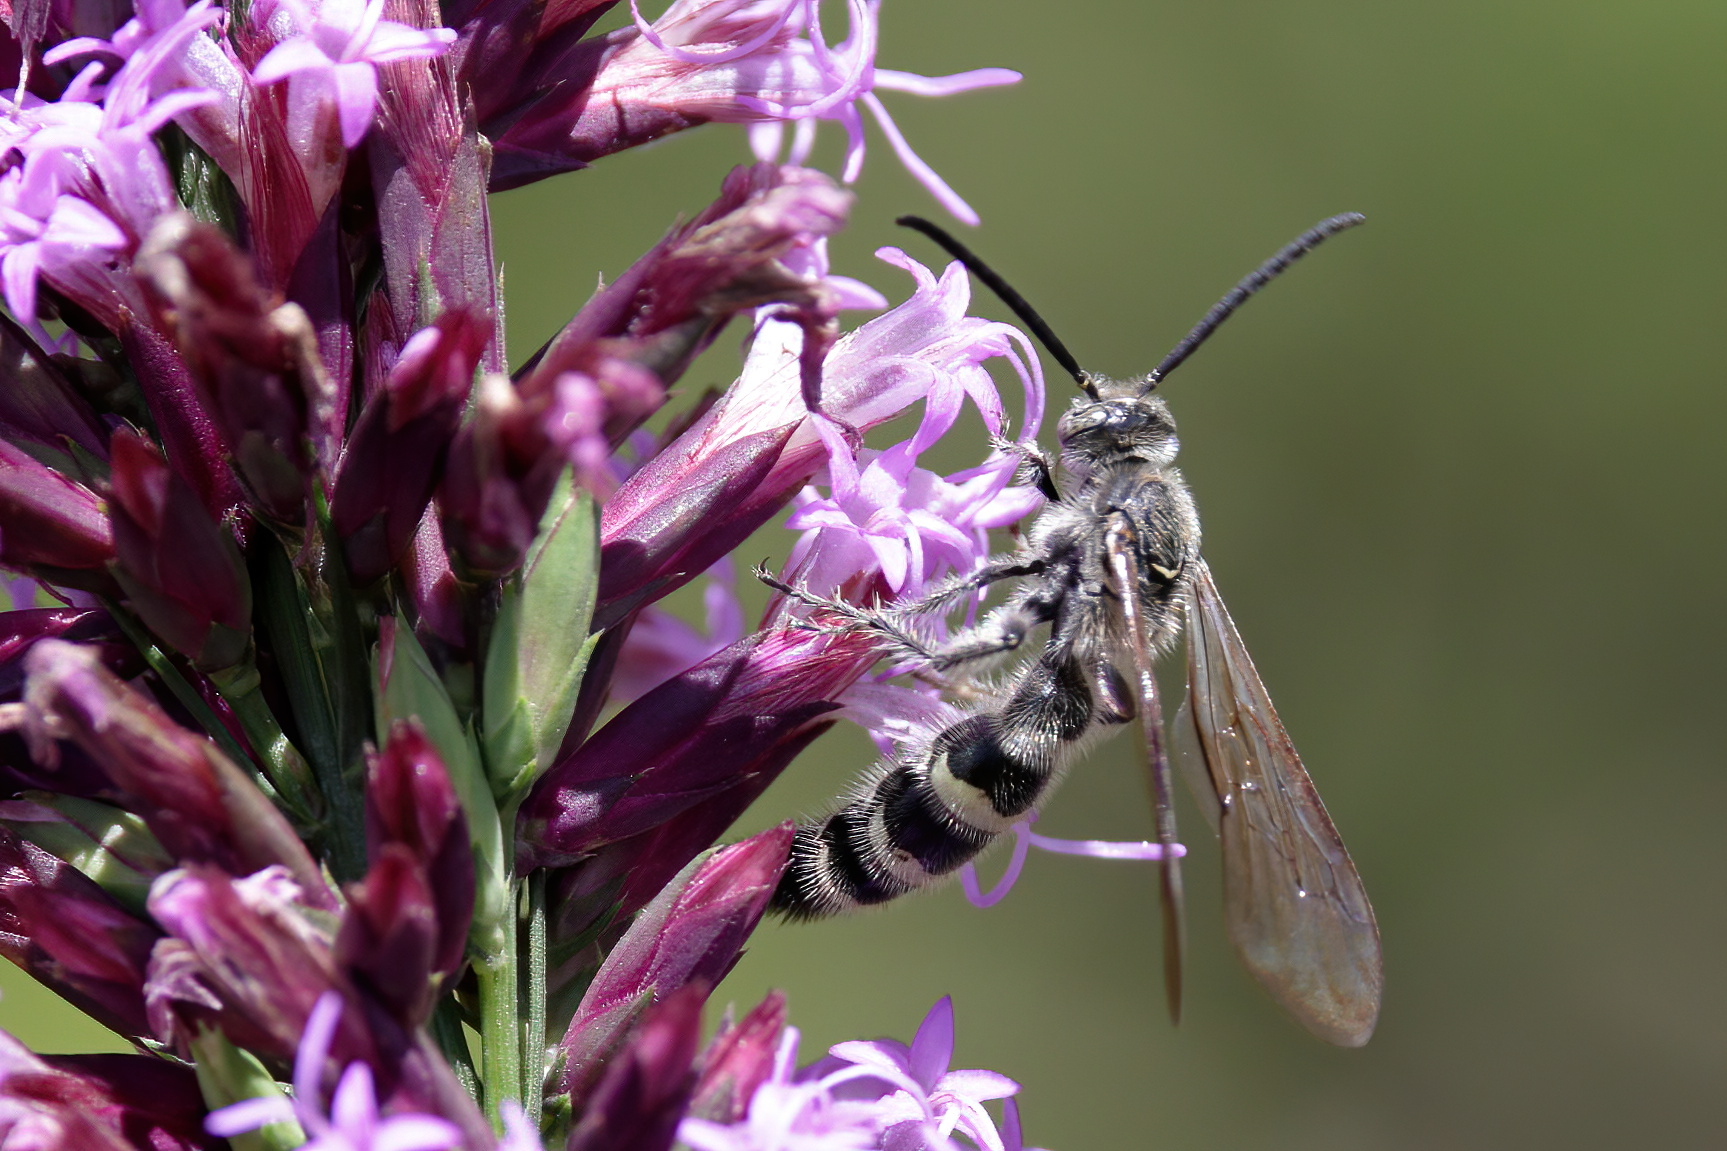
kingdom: Animalia
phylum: Arthropoda
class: Insecta
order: Hymenoptera
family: Scoliidae
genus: Dielis
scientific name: Dielis
